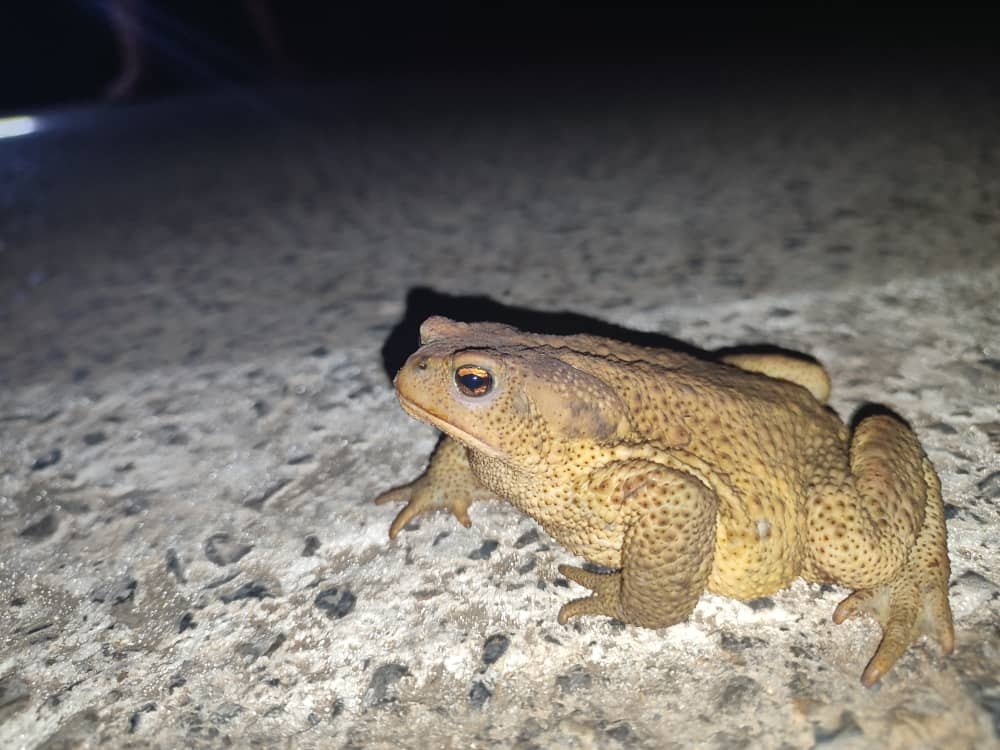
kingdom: Animalia
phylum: Chordata
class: Amphibia
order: Anura
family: Bufonidae
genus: Bufo
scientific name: Bufo spinosus
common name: Western common toad
